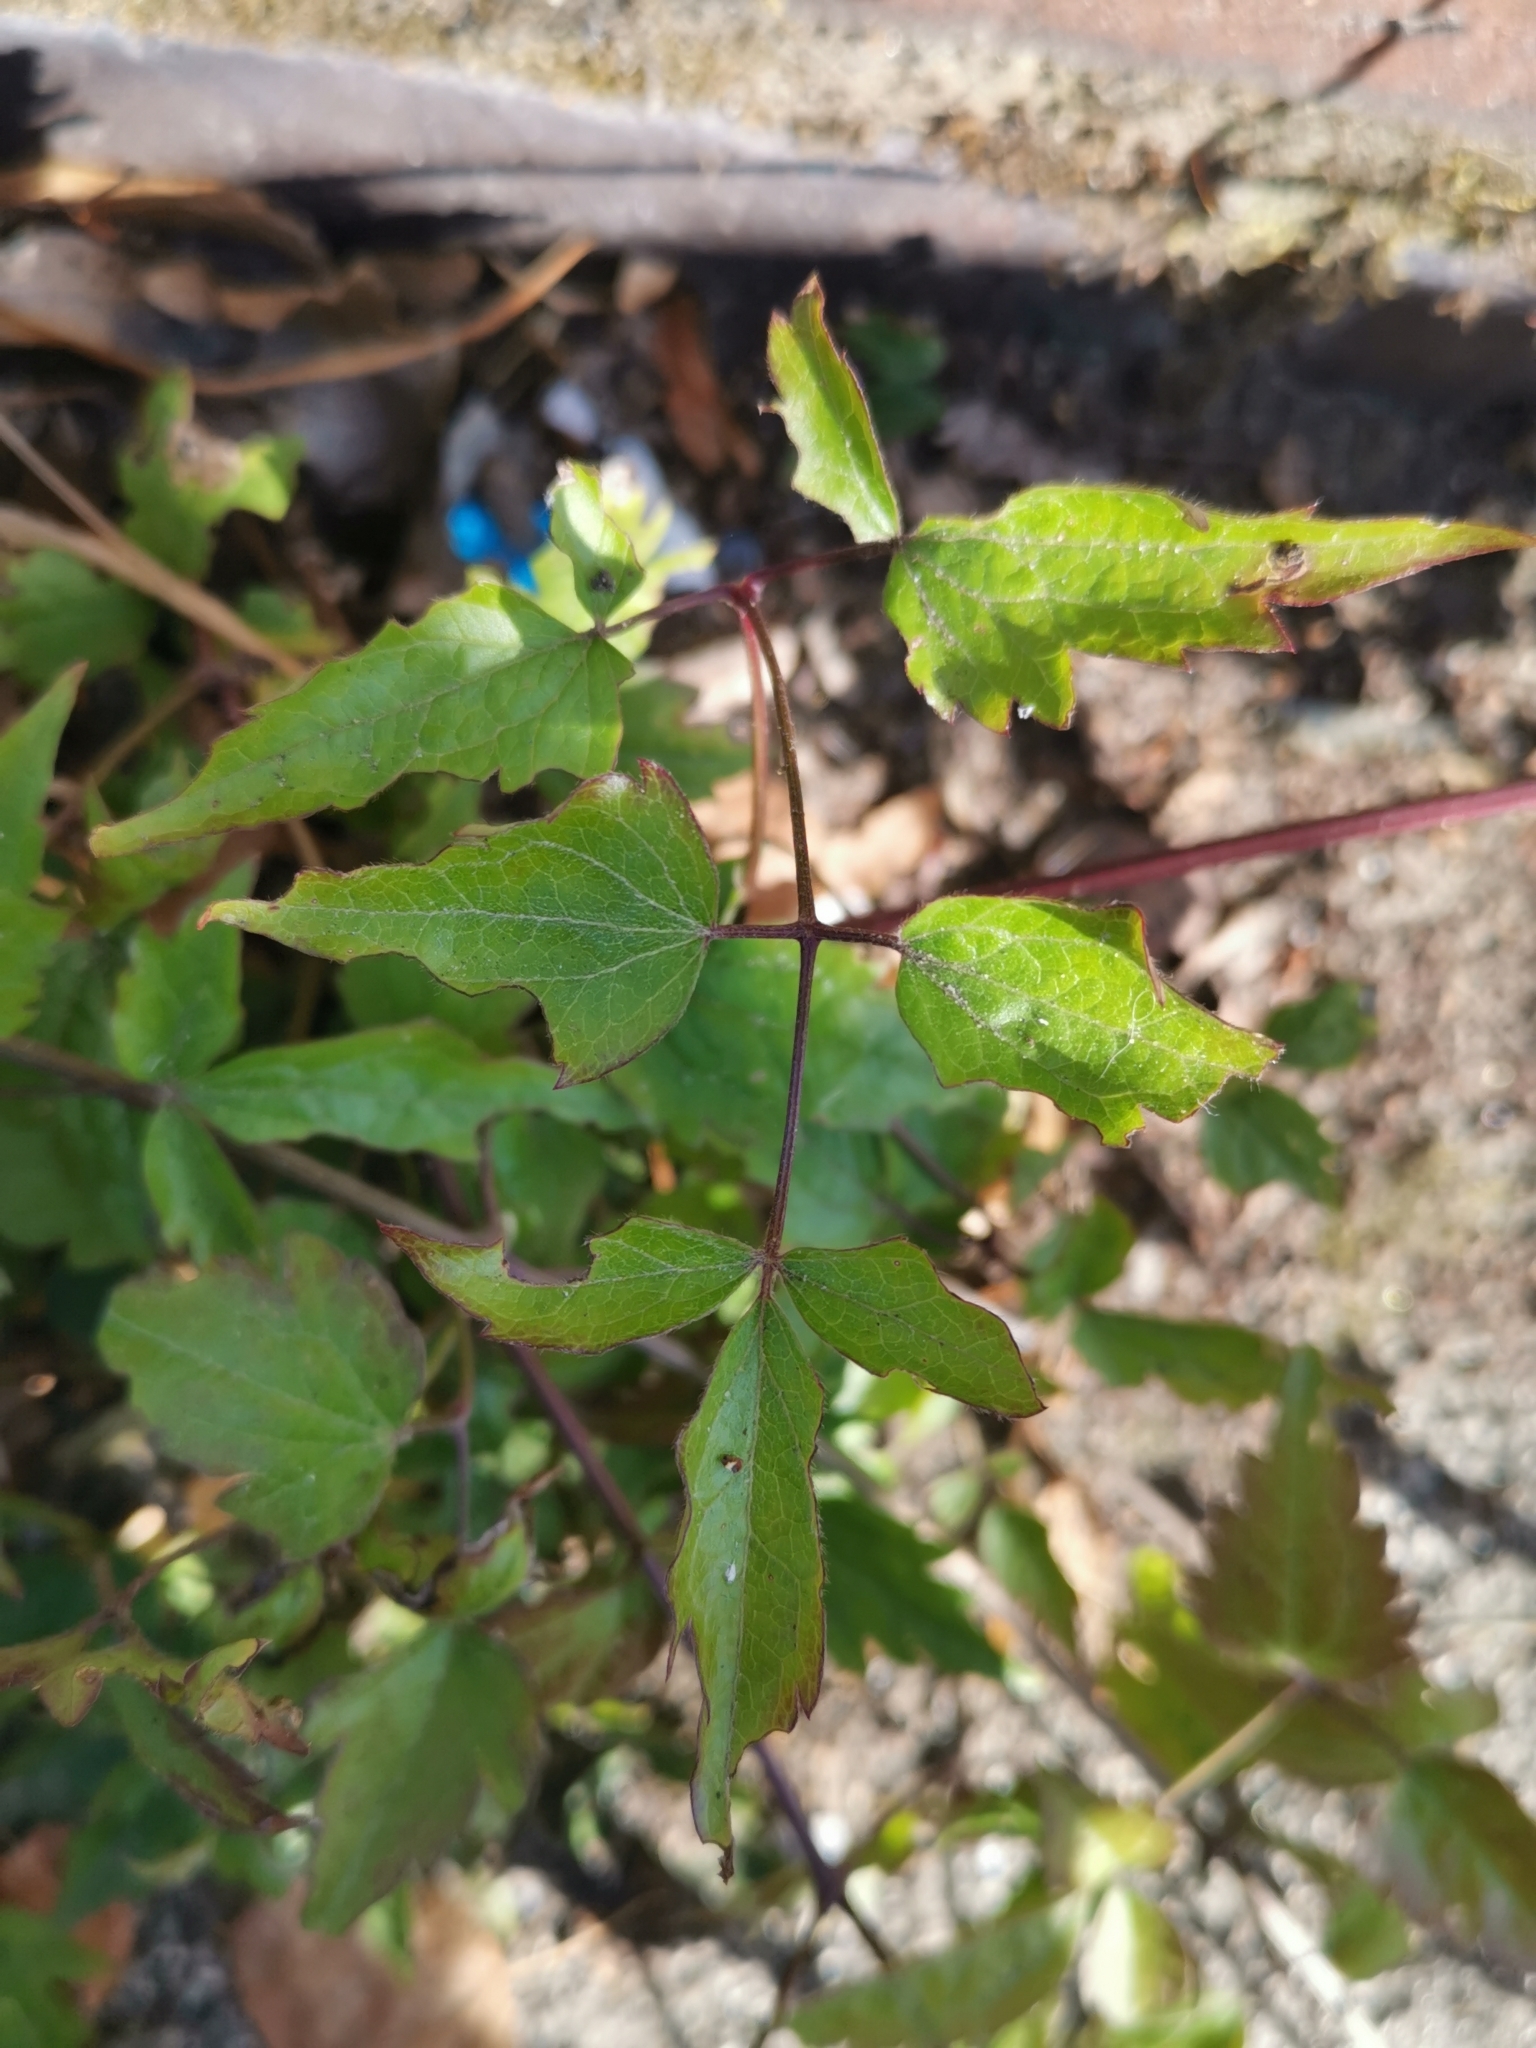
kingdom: Plantae
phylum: Tracheophyta
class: Magnoliopsida
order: Ranunculales
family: Ranunculaceae
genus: Clematis
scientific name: Clematis vitalba
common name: Evergreen clematis
